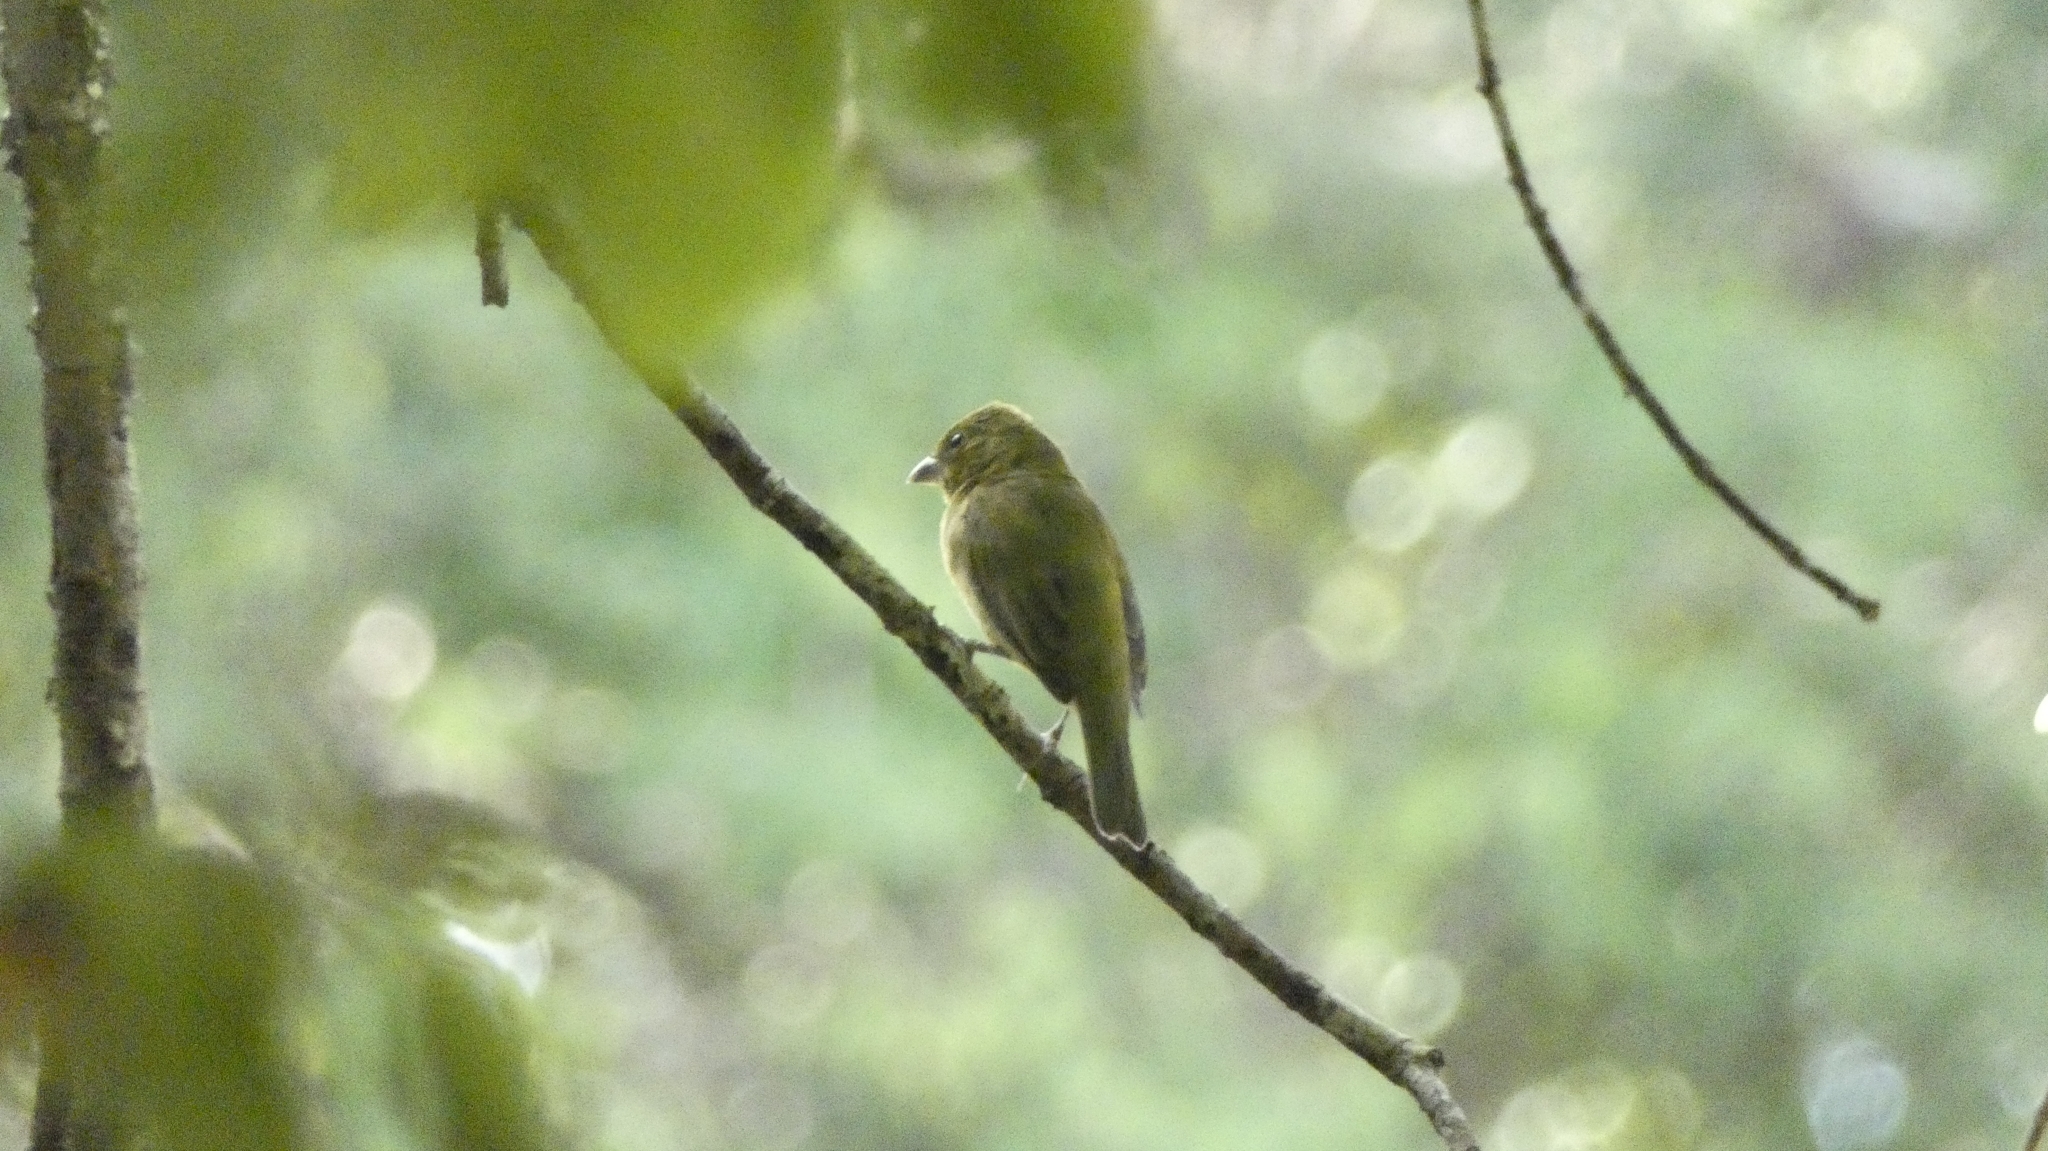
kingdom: Animalia
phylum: Chordata
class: Aves
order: Passeriformes
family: Cardinalidae
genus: Passerina
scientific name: Passerina ciris
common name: Painted bunting
